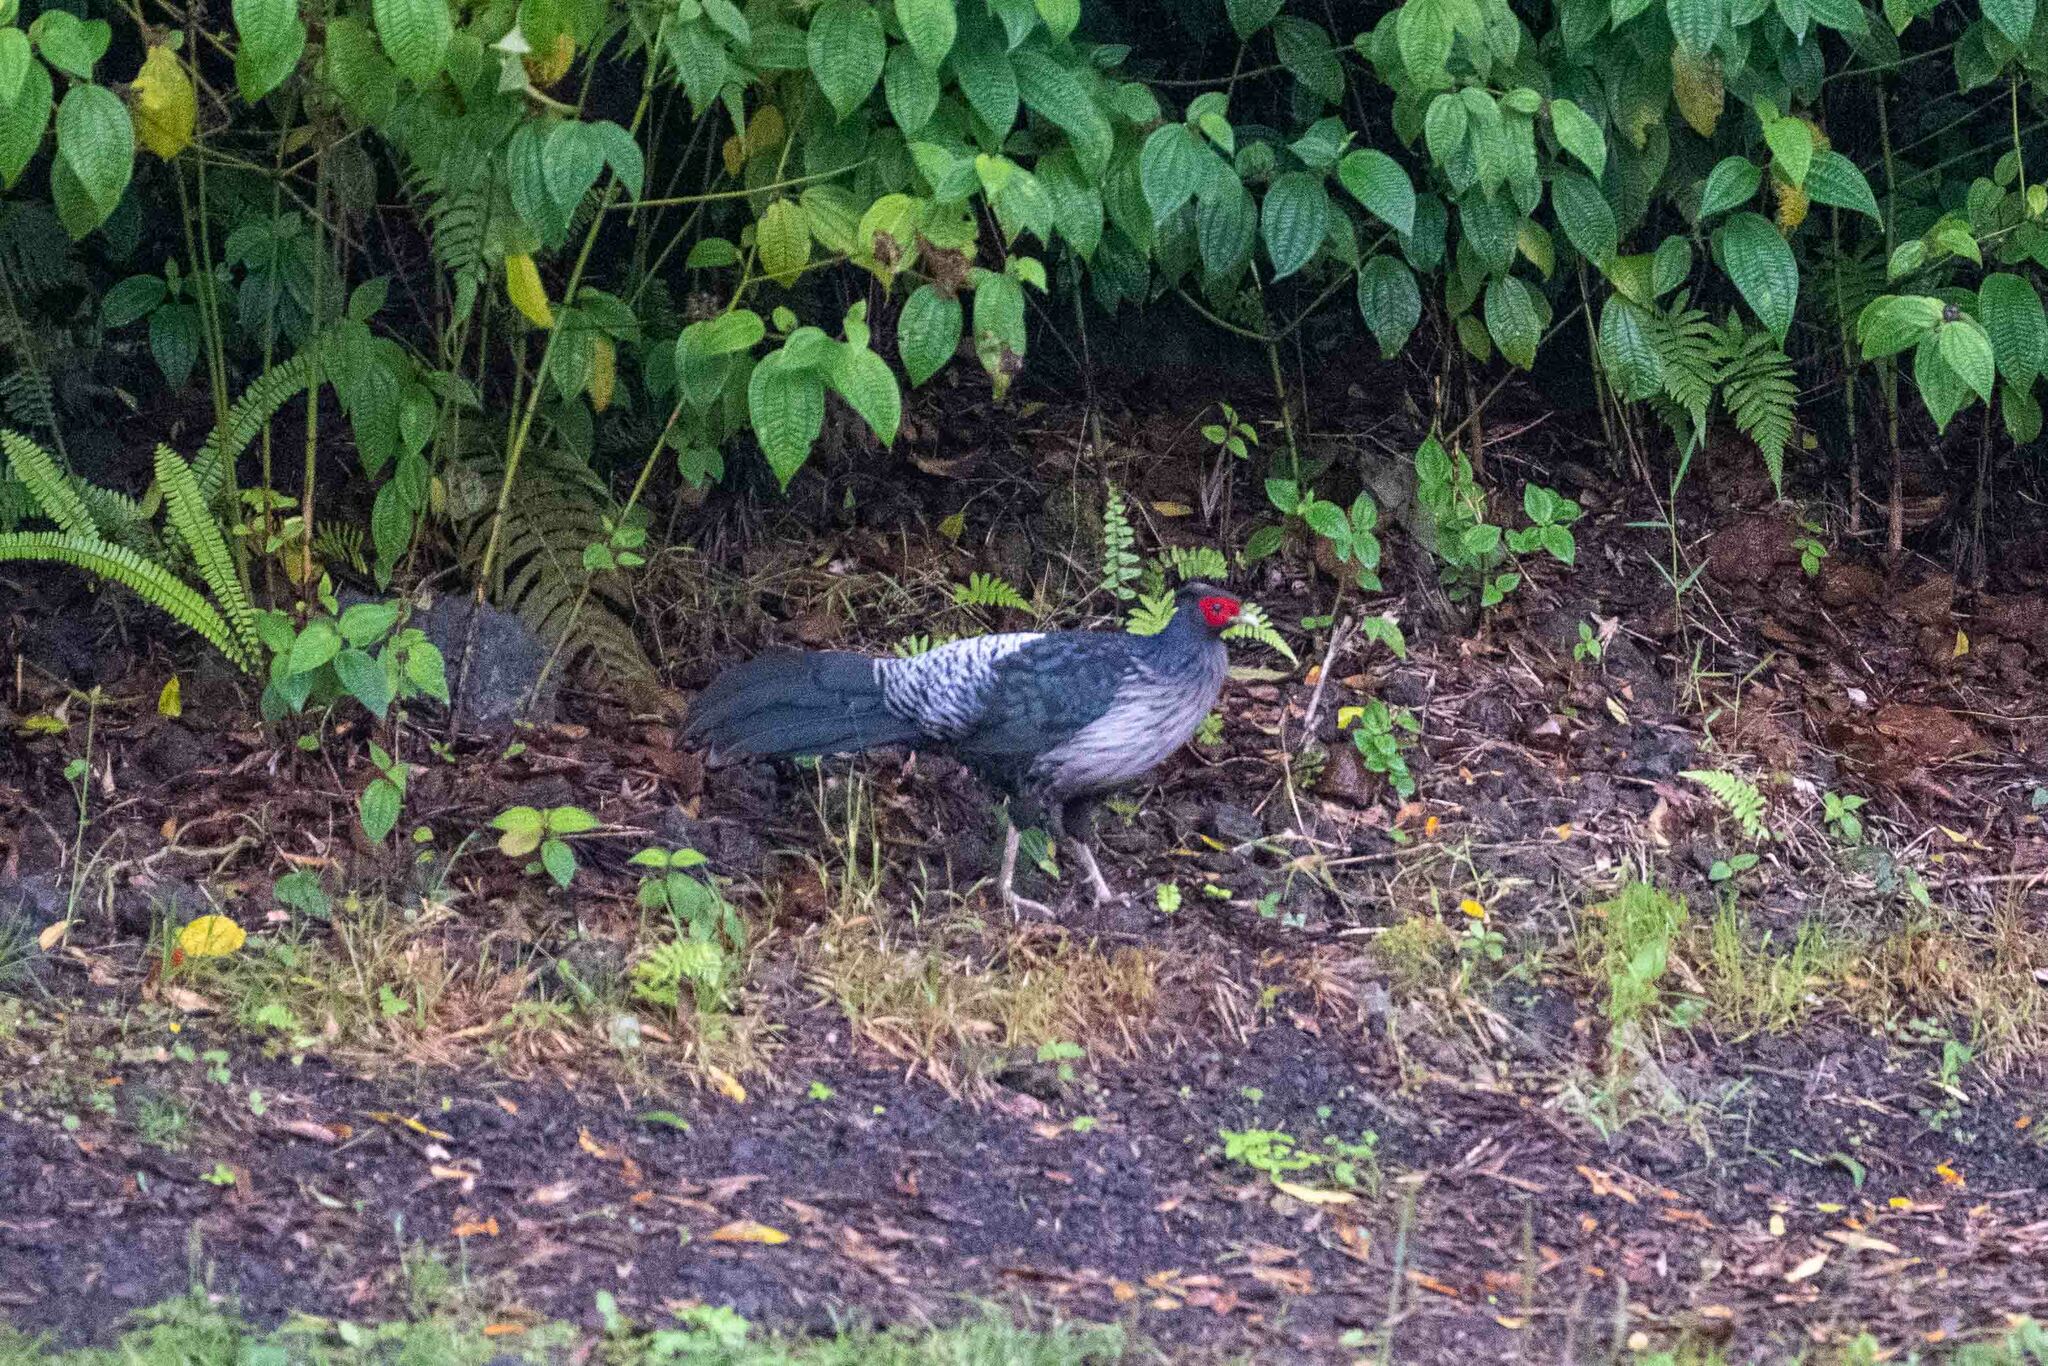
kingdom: Animalia
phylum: Chordata
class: Aves
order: Galliformes
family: Phasianidae
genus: Lophura
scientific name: Lophura leucomelanos
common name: Kalij pheasant
